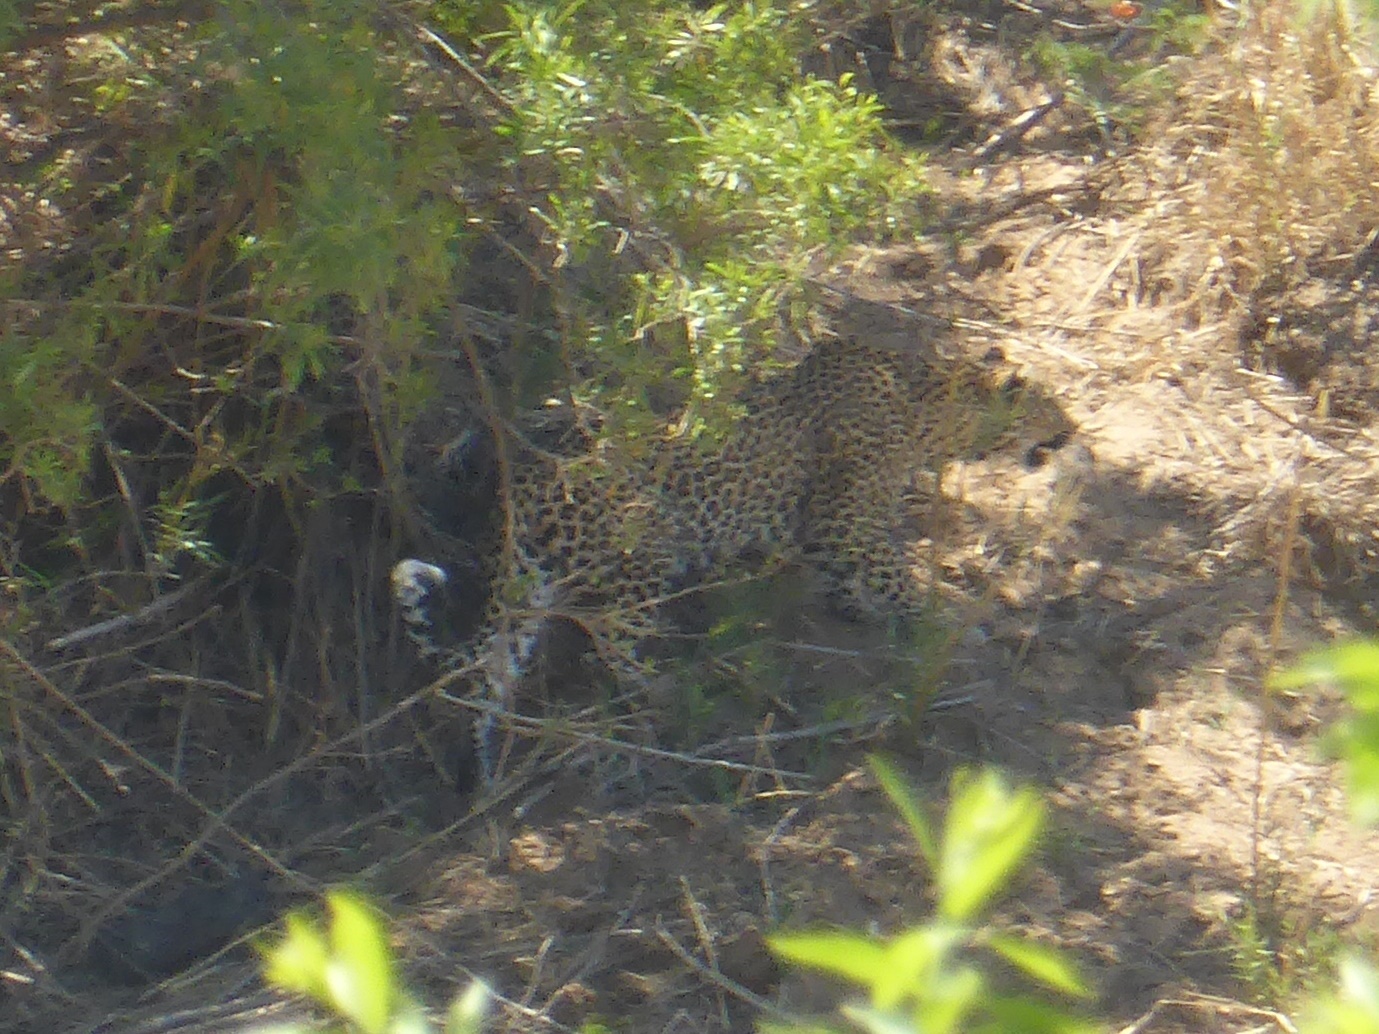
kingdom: Animalia
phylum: Chordata
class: Mammalia
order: Carnivora
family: Felidae
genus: Panthera
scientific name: Panthera pardus
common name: Leopard
